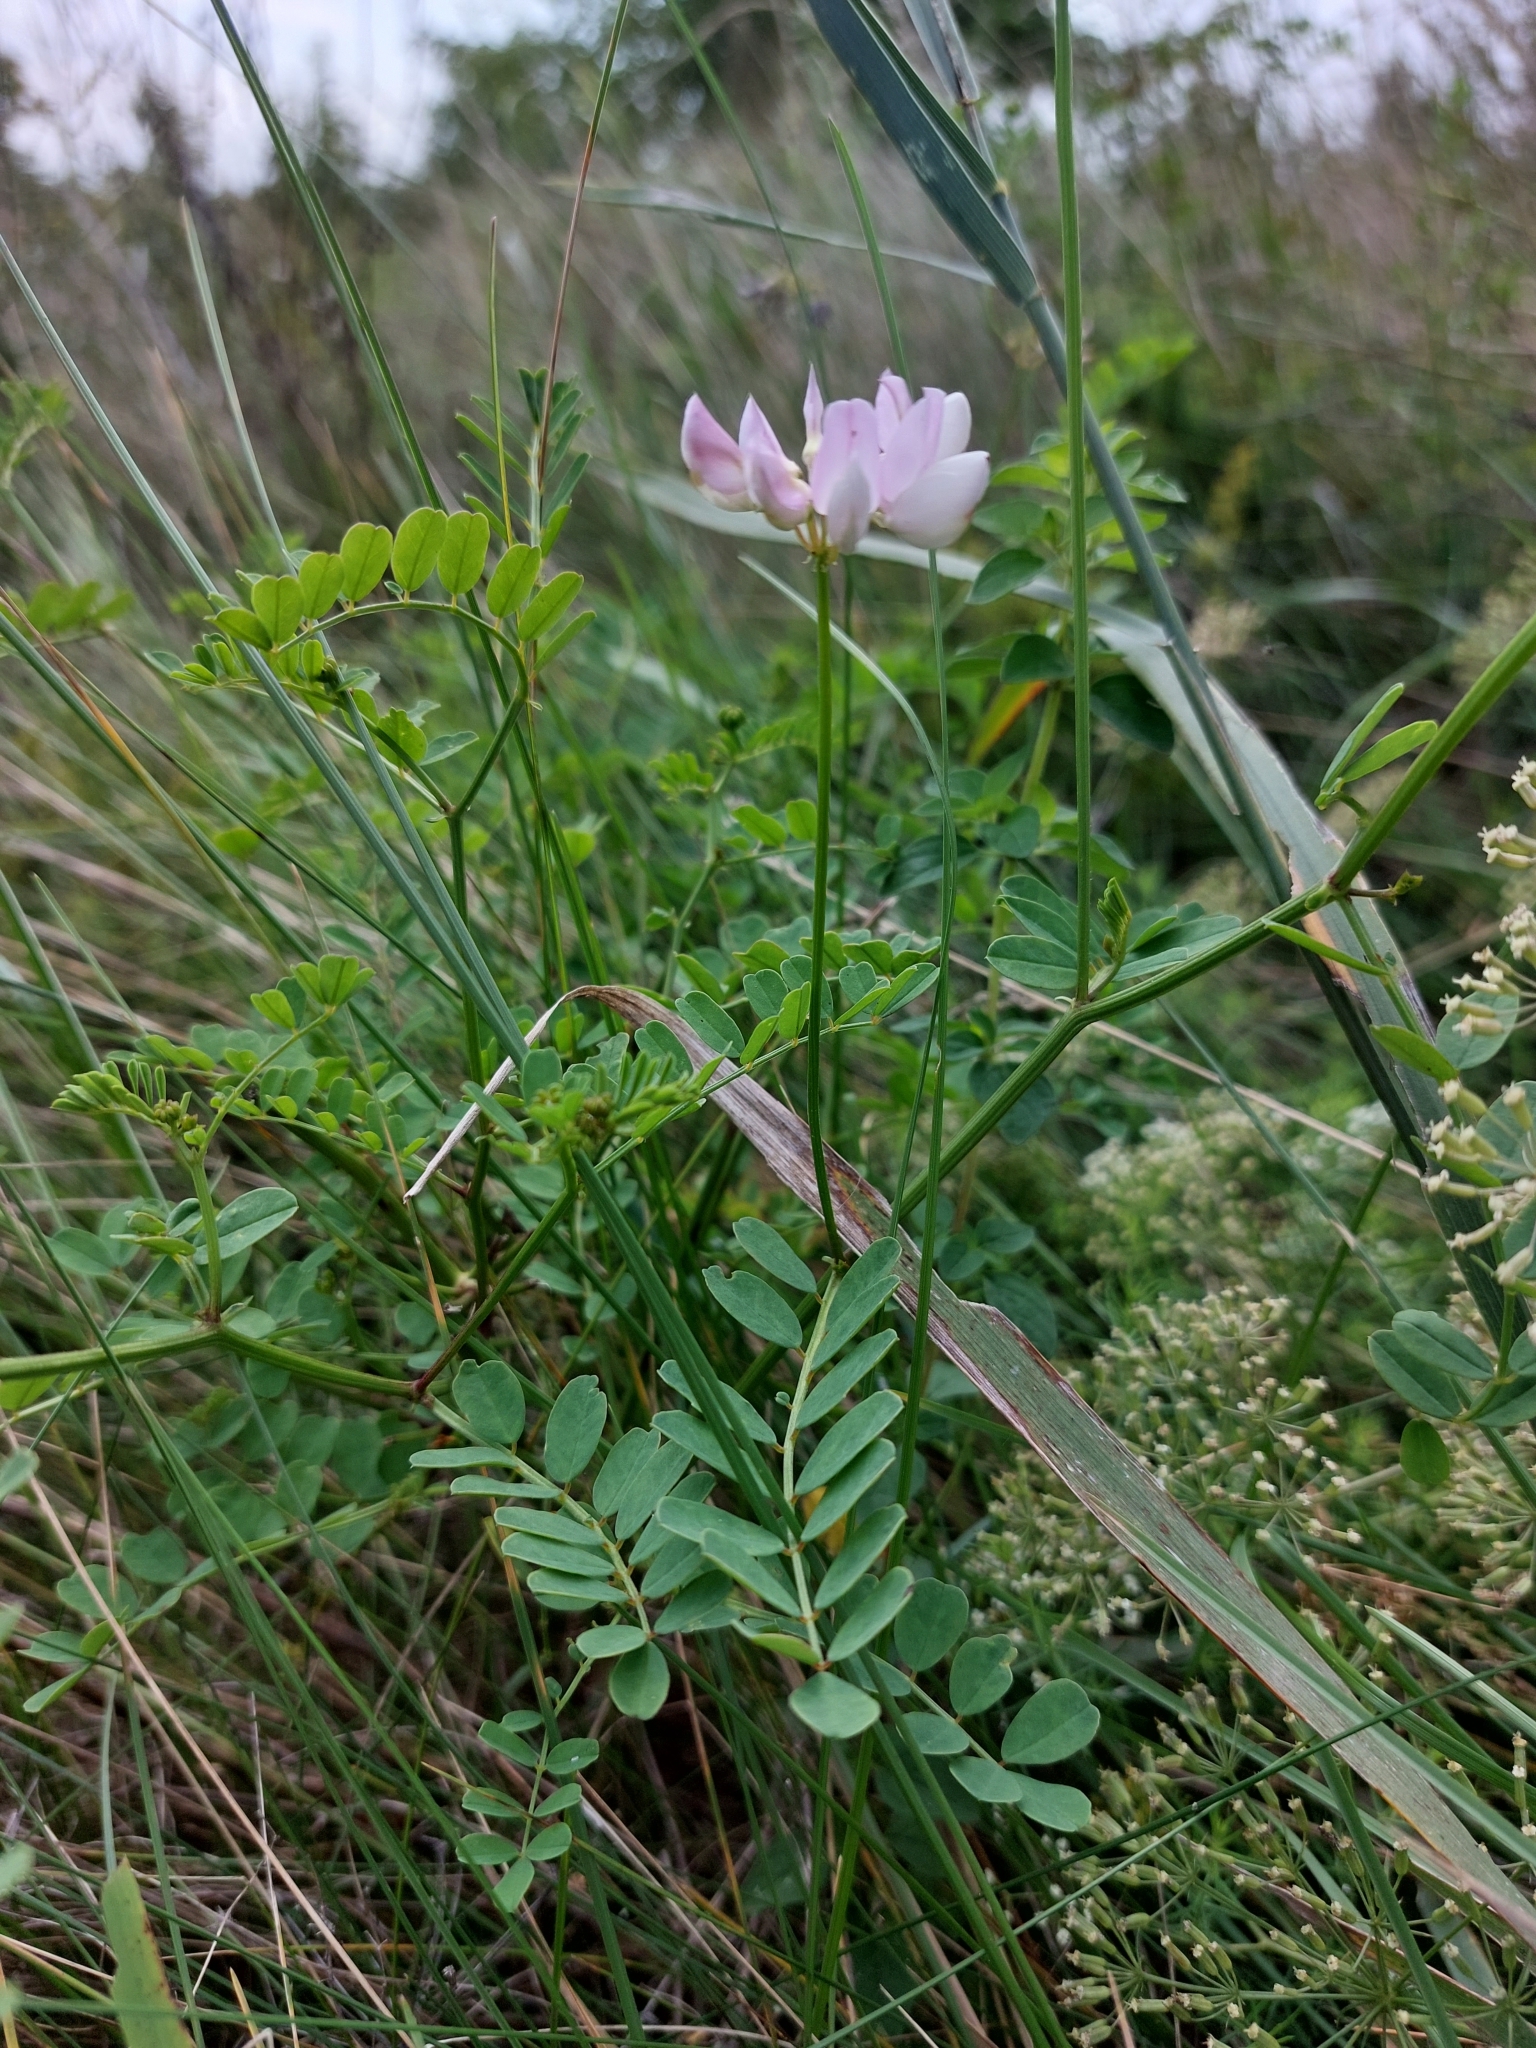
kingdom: Plantae
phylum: Tracheophyta
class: Magnoliopsida
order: Fabales
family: Fabaceae
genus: Coronilla
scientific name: Coronilla varia
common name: Crownvetch
